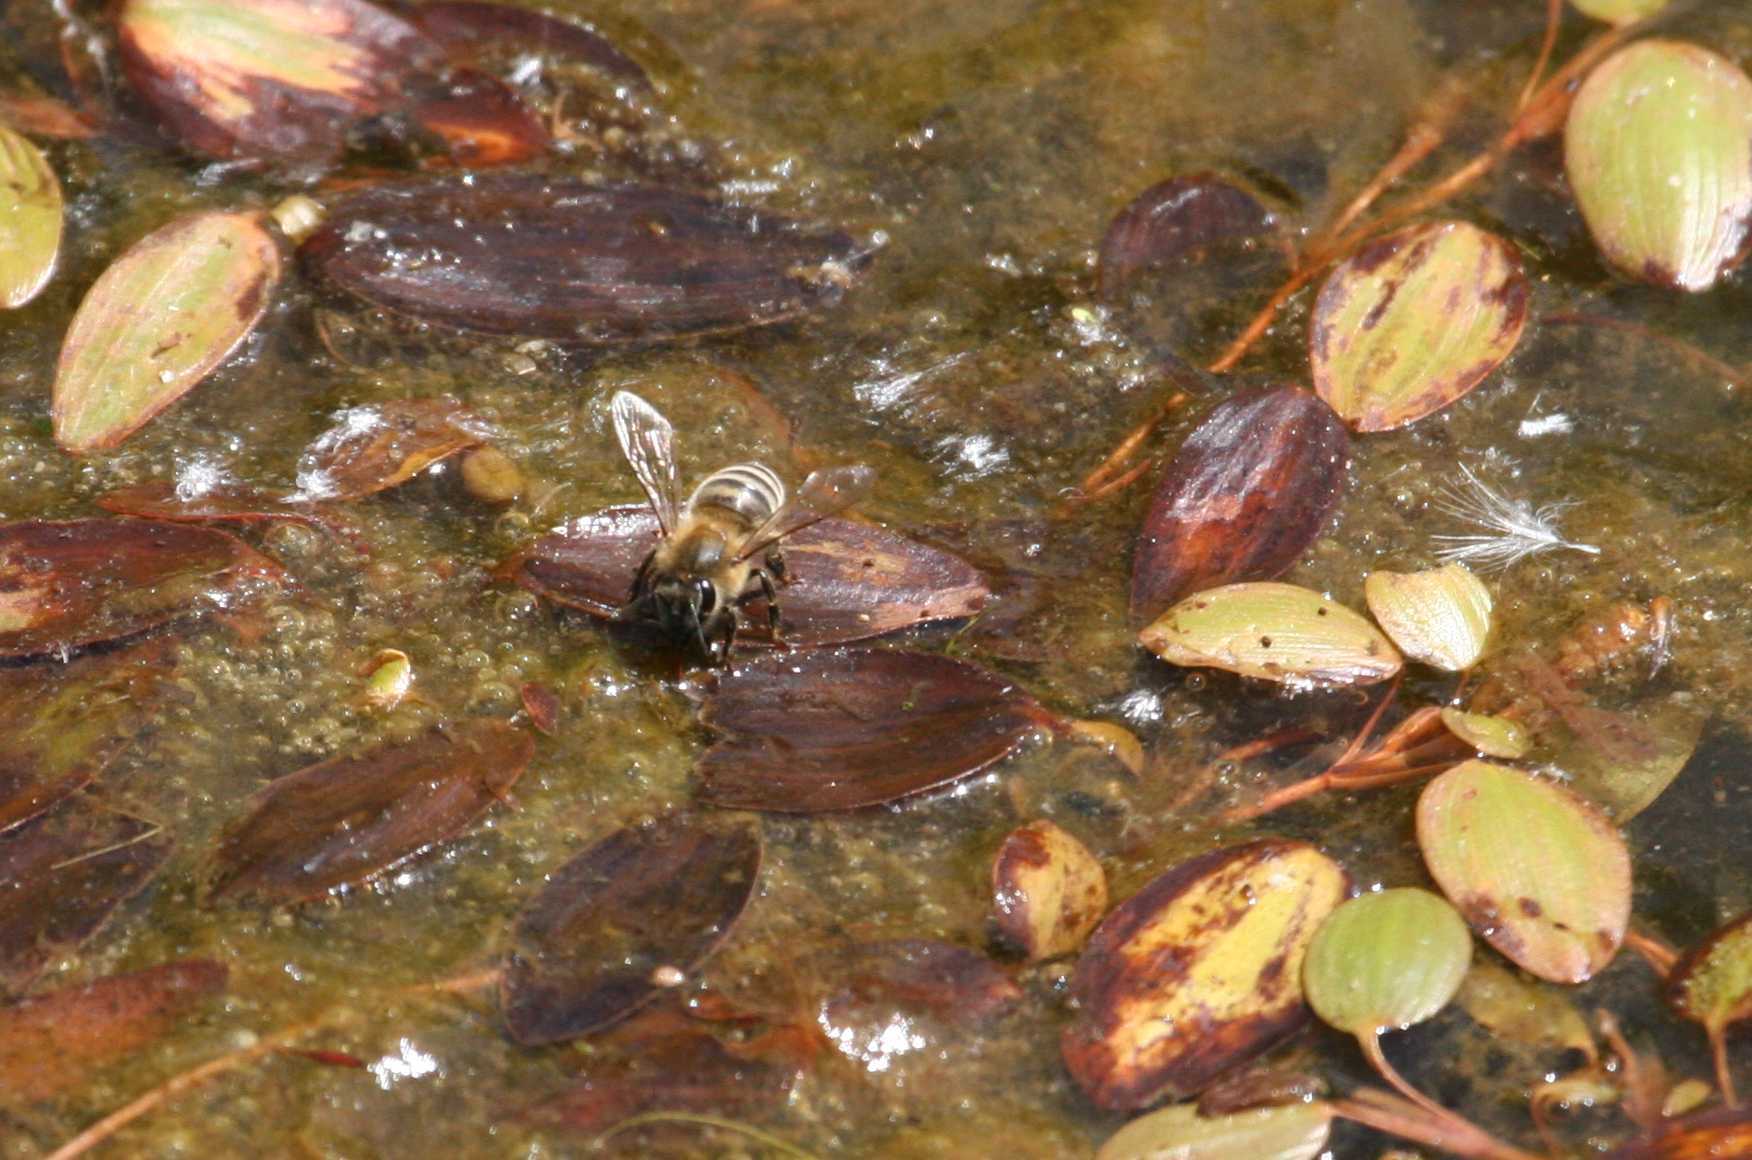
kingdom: Animalia
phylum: Arthropoda
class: Insecta
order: Hymenoptera
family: Apidae
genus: Apis
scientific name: Apis mellifera
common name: Honey bee
